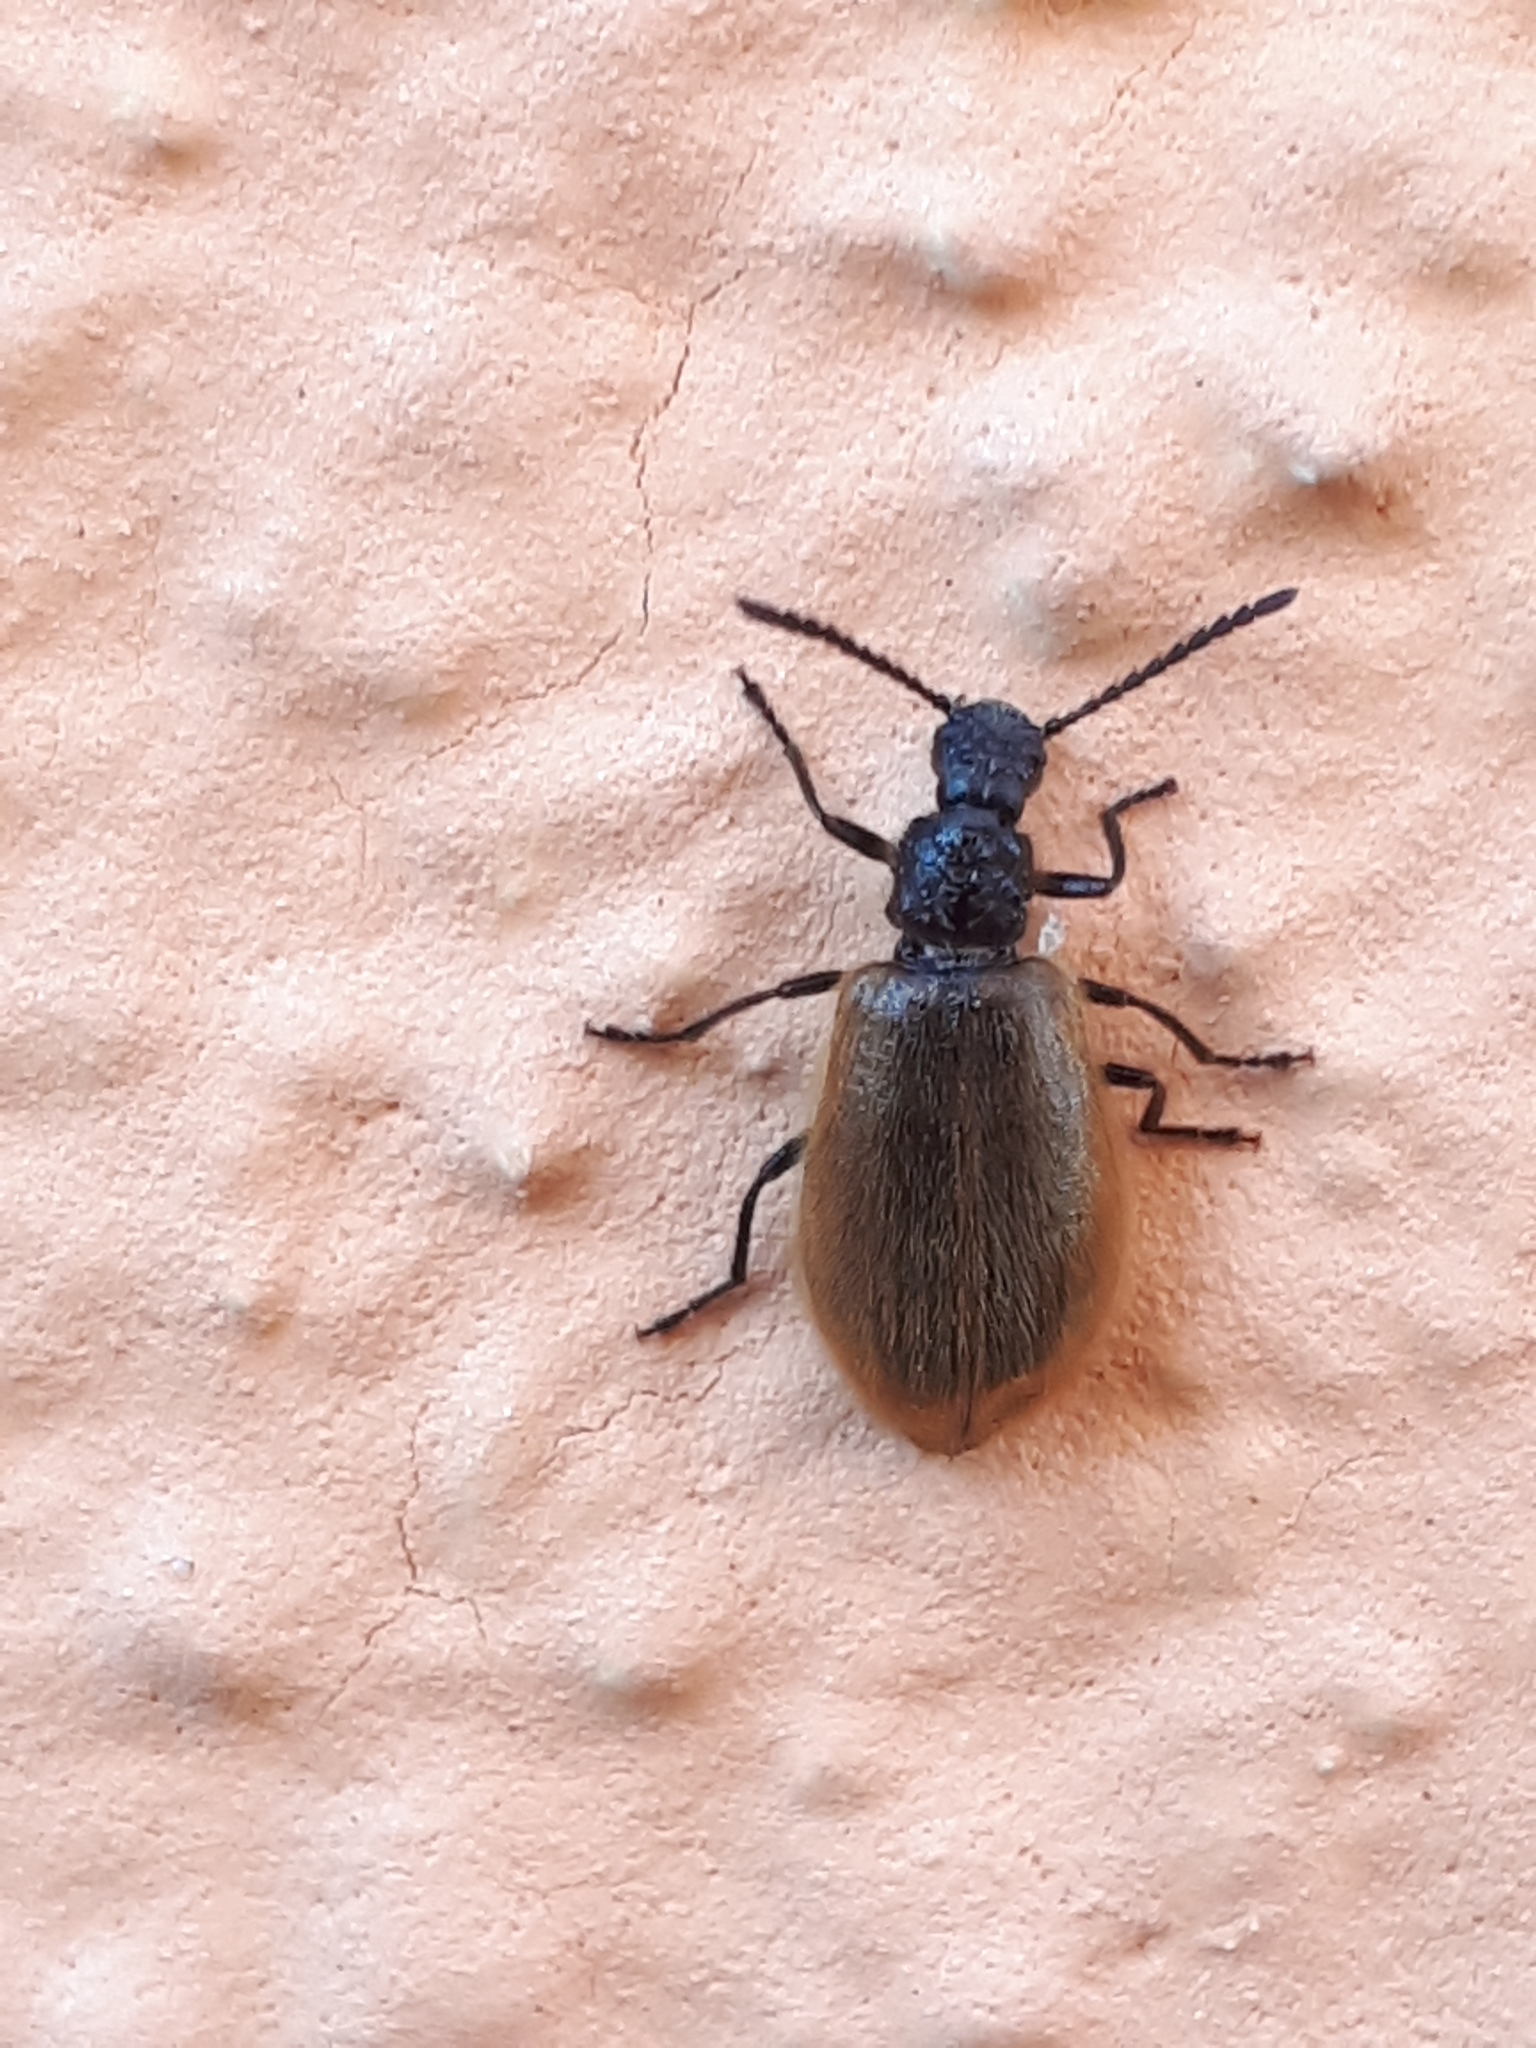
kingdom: Animalia
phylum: Arthropoda
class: Insecta
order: Coleoptera
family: Tenebrionidae
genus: Lagria
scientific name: Lagria hirta
